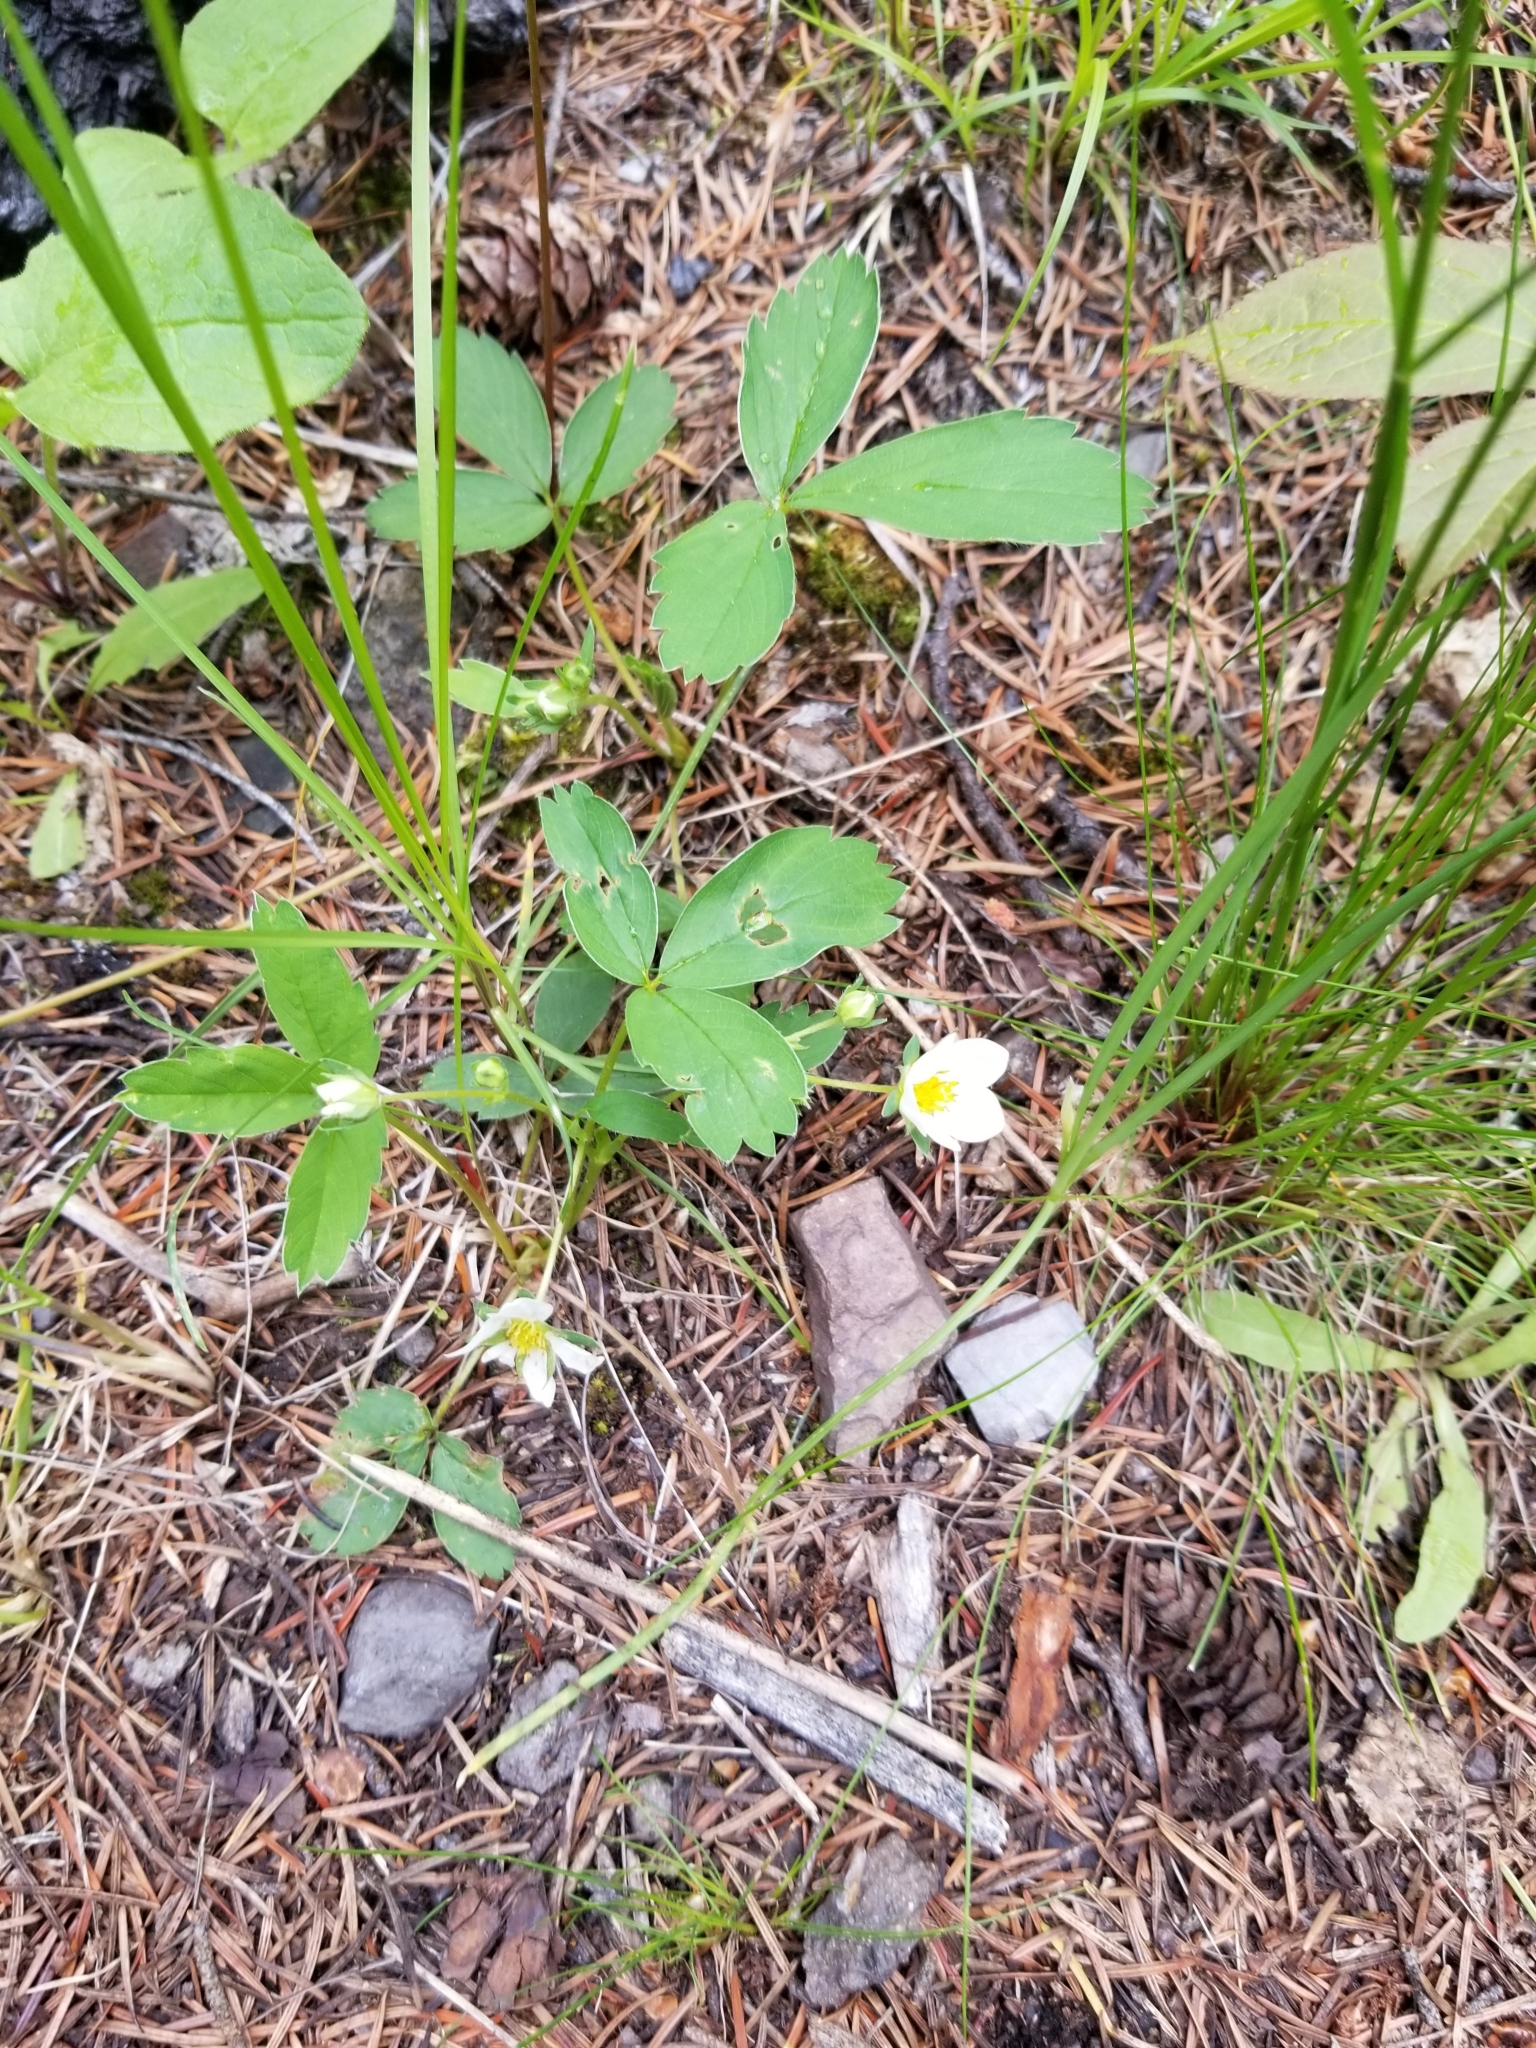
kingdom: Plantae
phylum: Tracheophyta
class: Magnoliopsida
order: Rosales
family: Rosaceae
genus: Fragaria
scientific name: Fragaria virginiana
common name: Thickleaved wild strawberry
